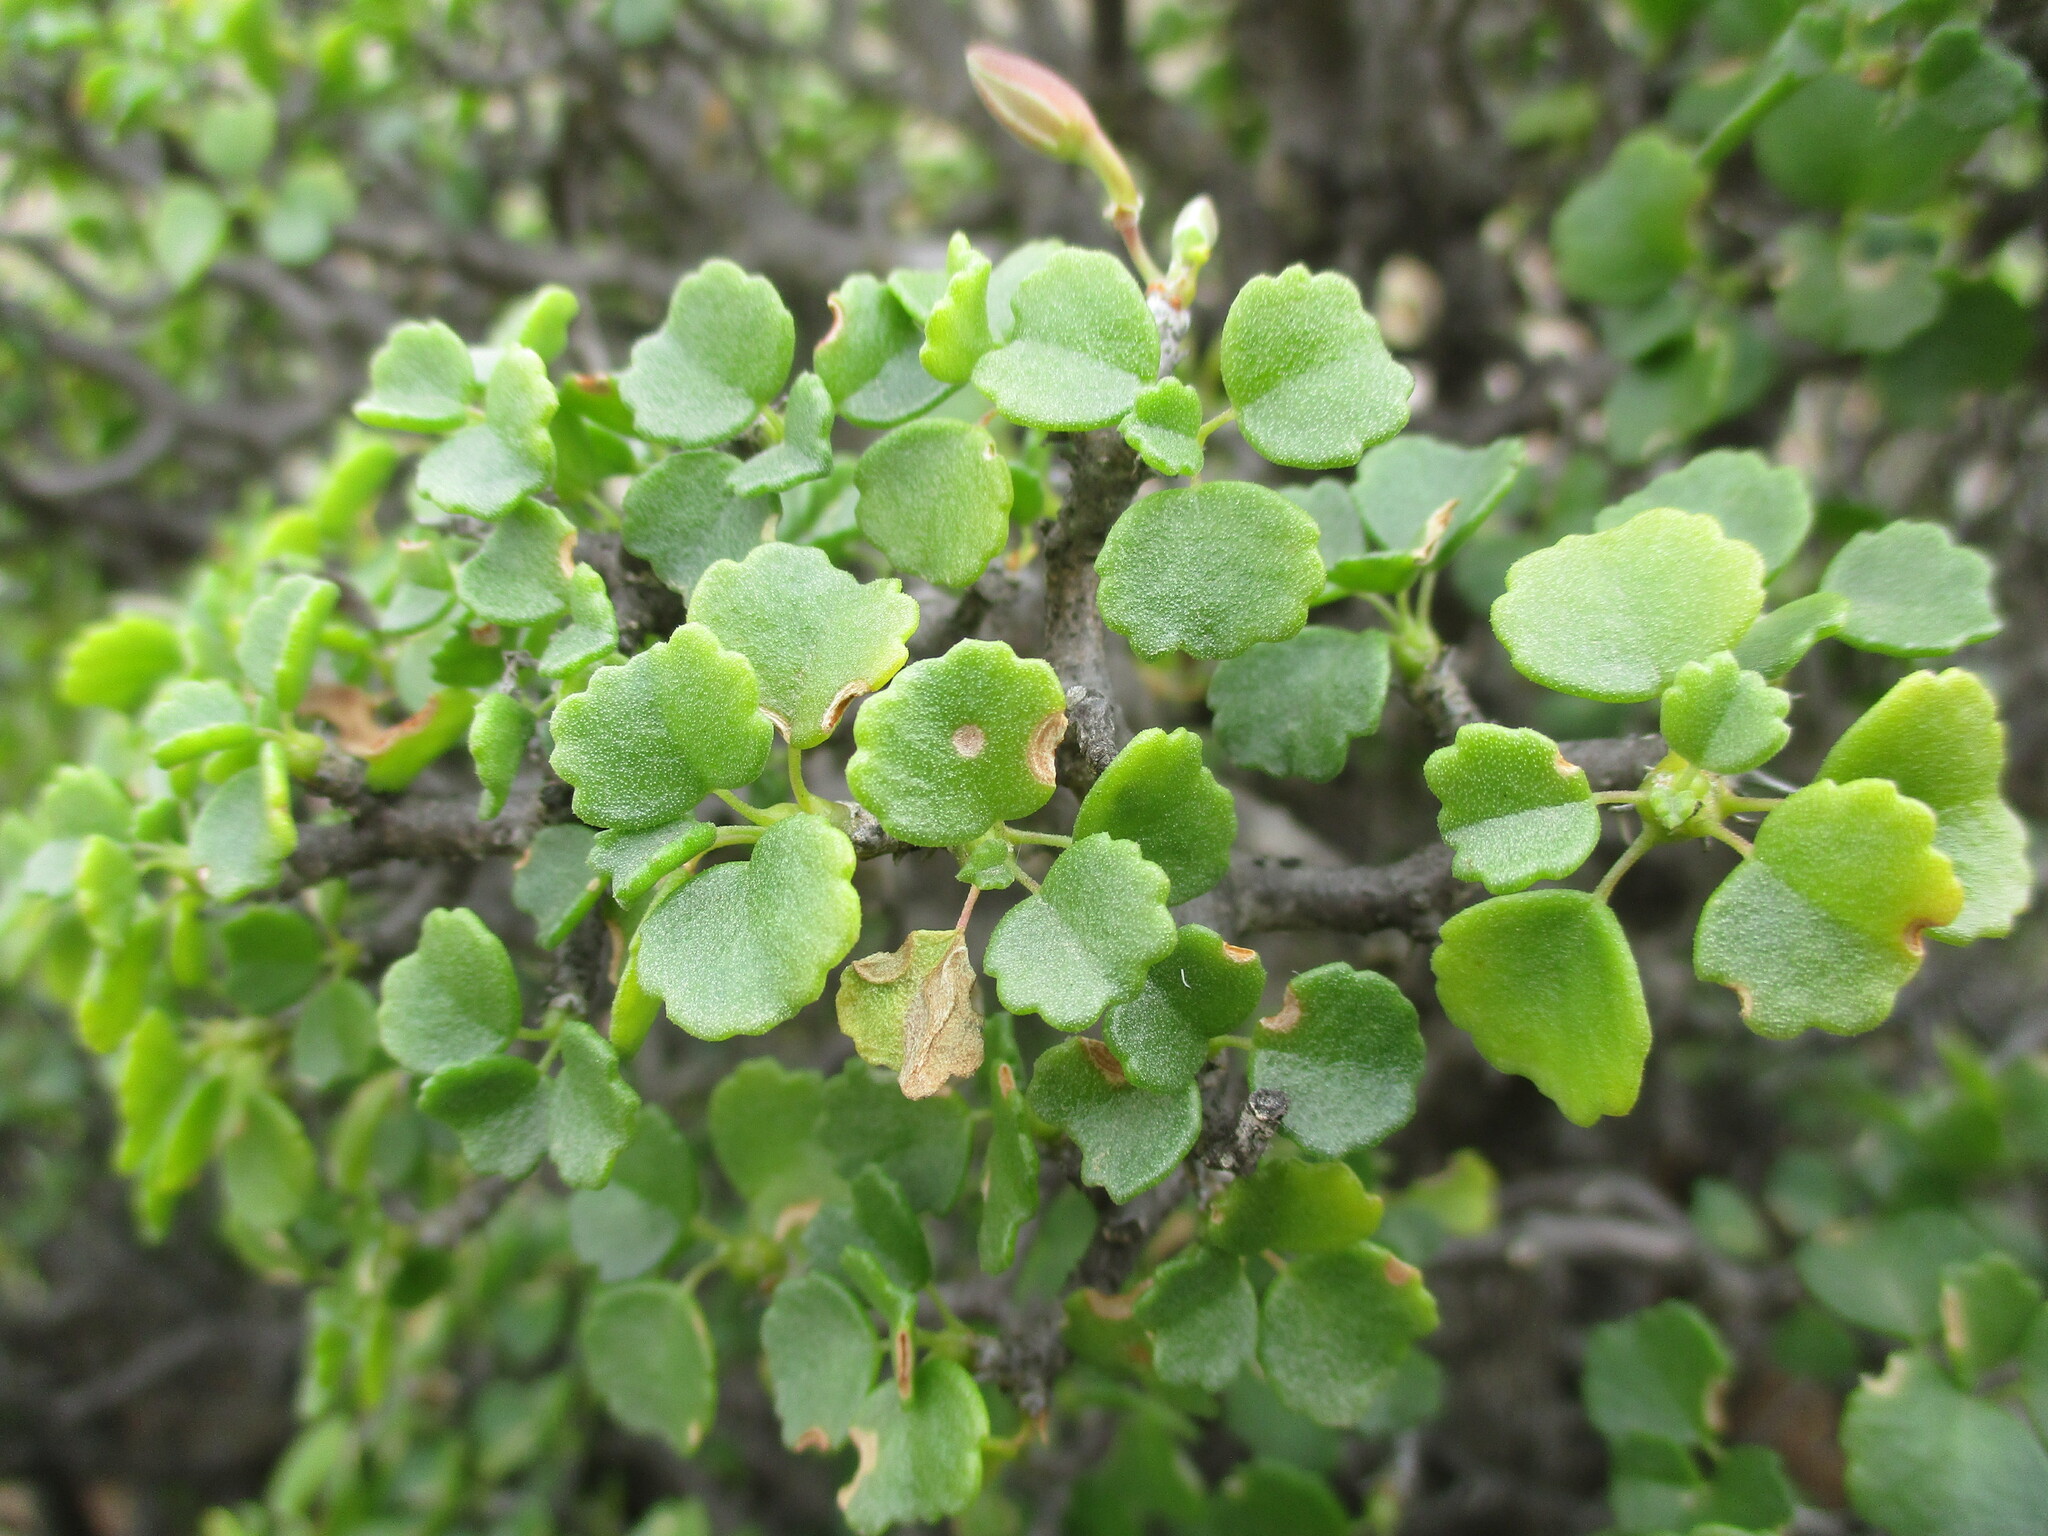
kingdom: Plantae
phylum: Tracheophyta
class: Magnoliopsida
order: Geraniales
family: Geraniaceae
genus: Pelargonium
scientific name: Pelargonium xerophyton
